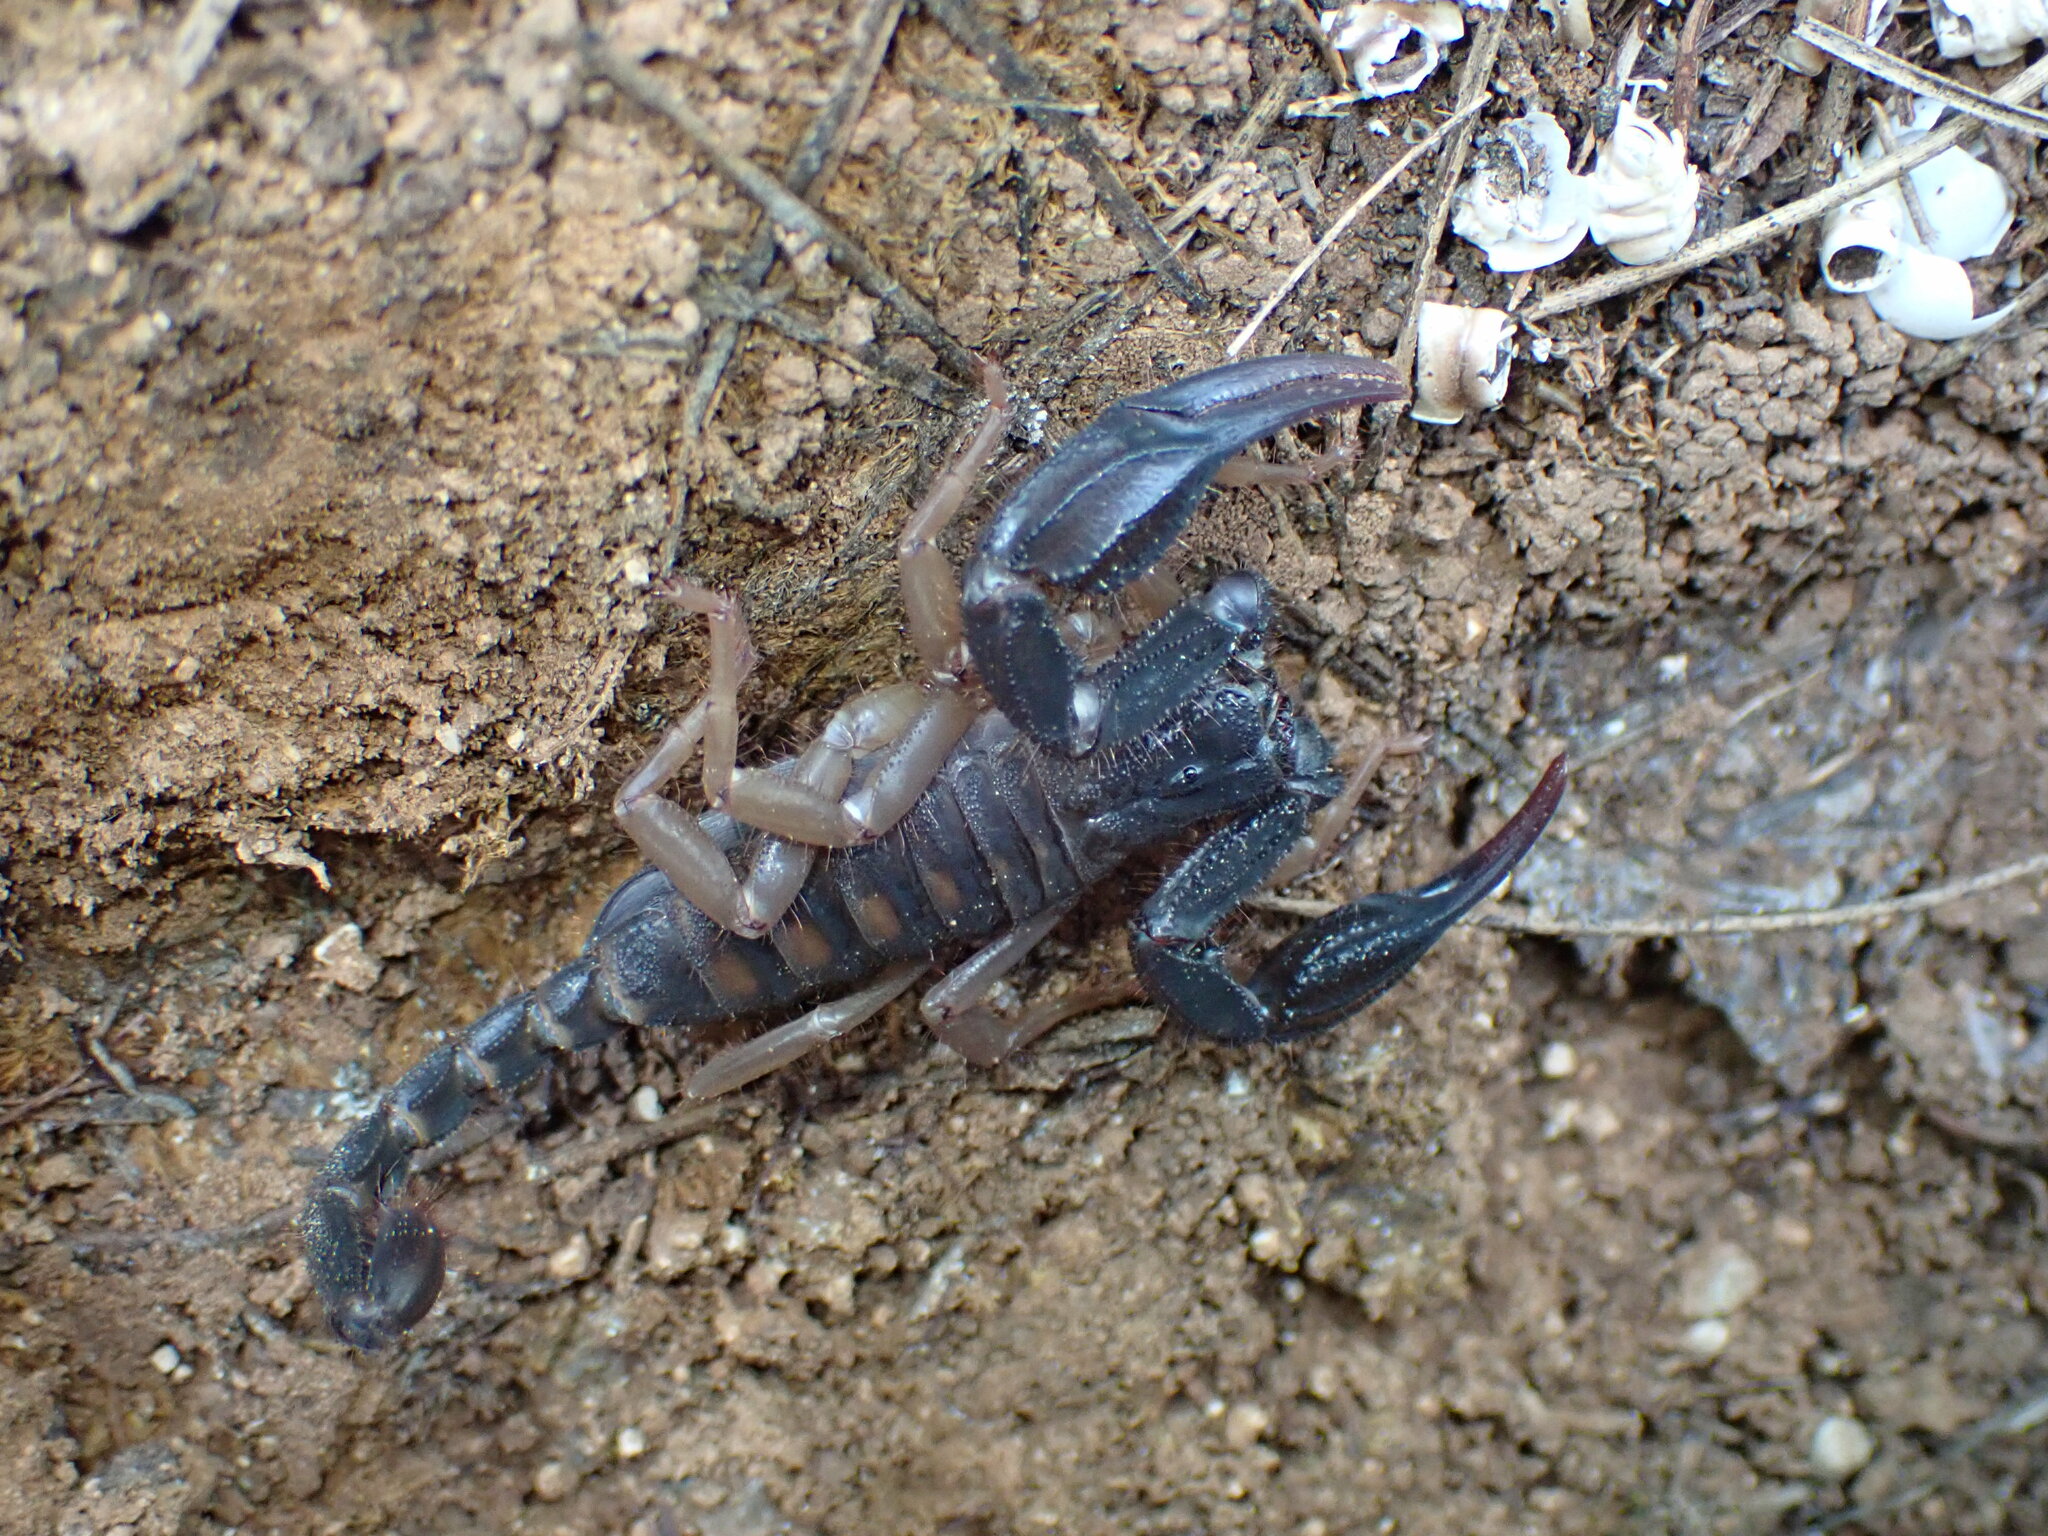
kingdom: Animalia
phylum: Arthropoda
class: Arachnida
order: Scorpiones
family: Iuridae
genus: Anatoliurus
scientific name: Anatoliurus kraepelini
